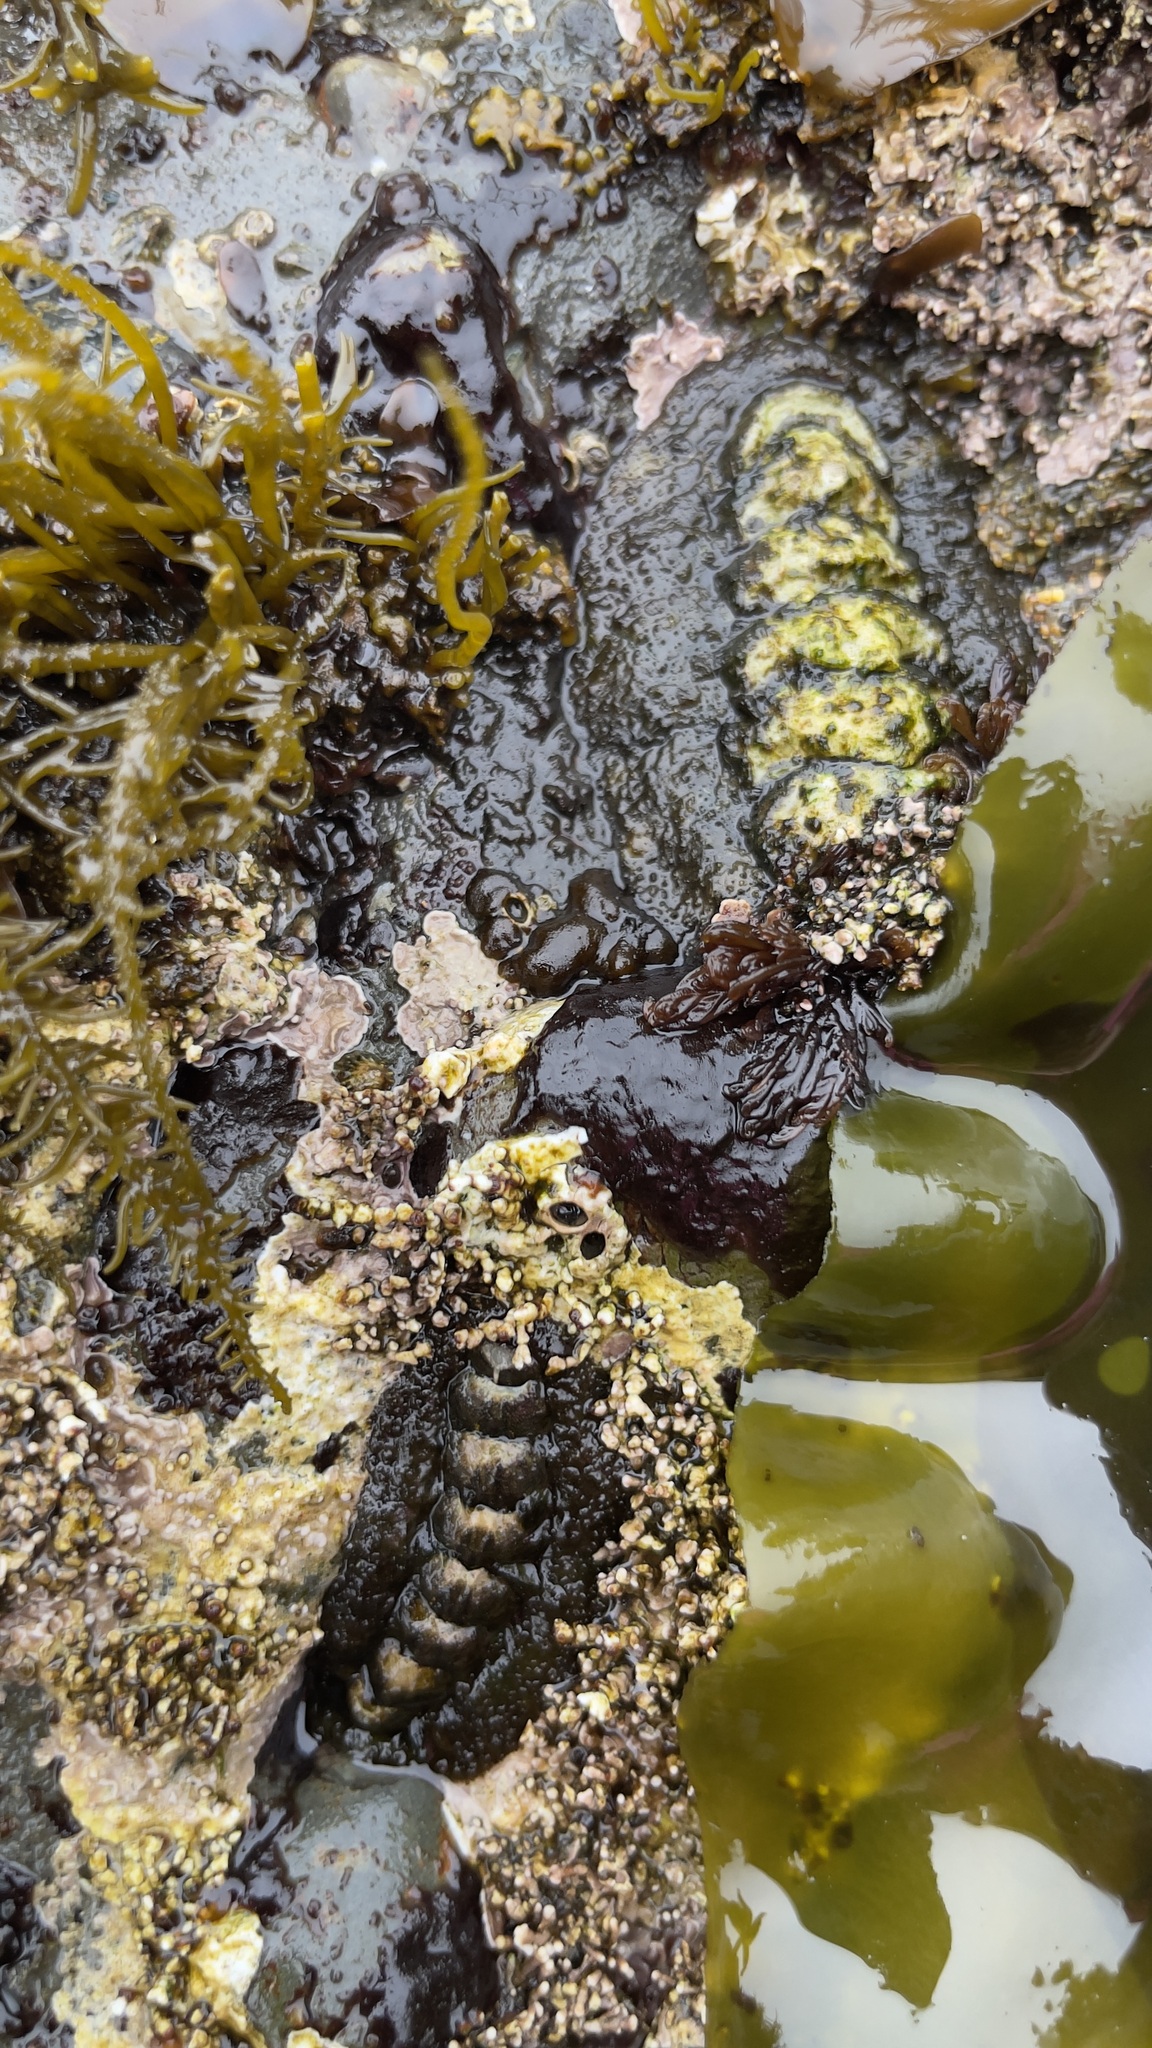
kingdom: Animalia
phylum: Mollusca
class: Polyplacophora
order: Chitonida
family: Tonicellidae
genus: Nuttallina
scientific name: Nuttallina californica
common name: California nuttall chiton
